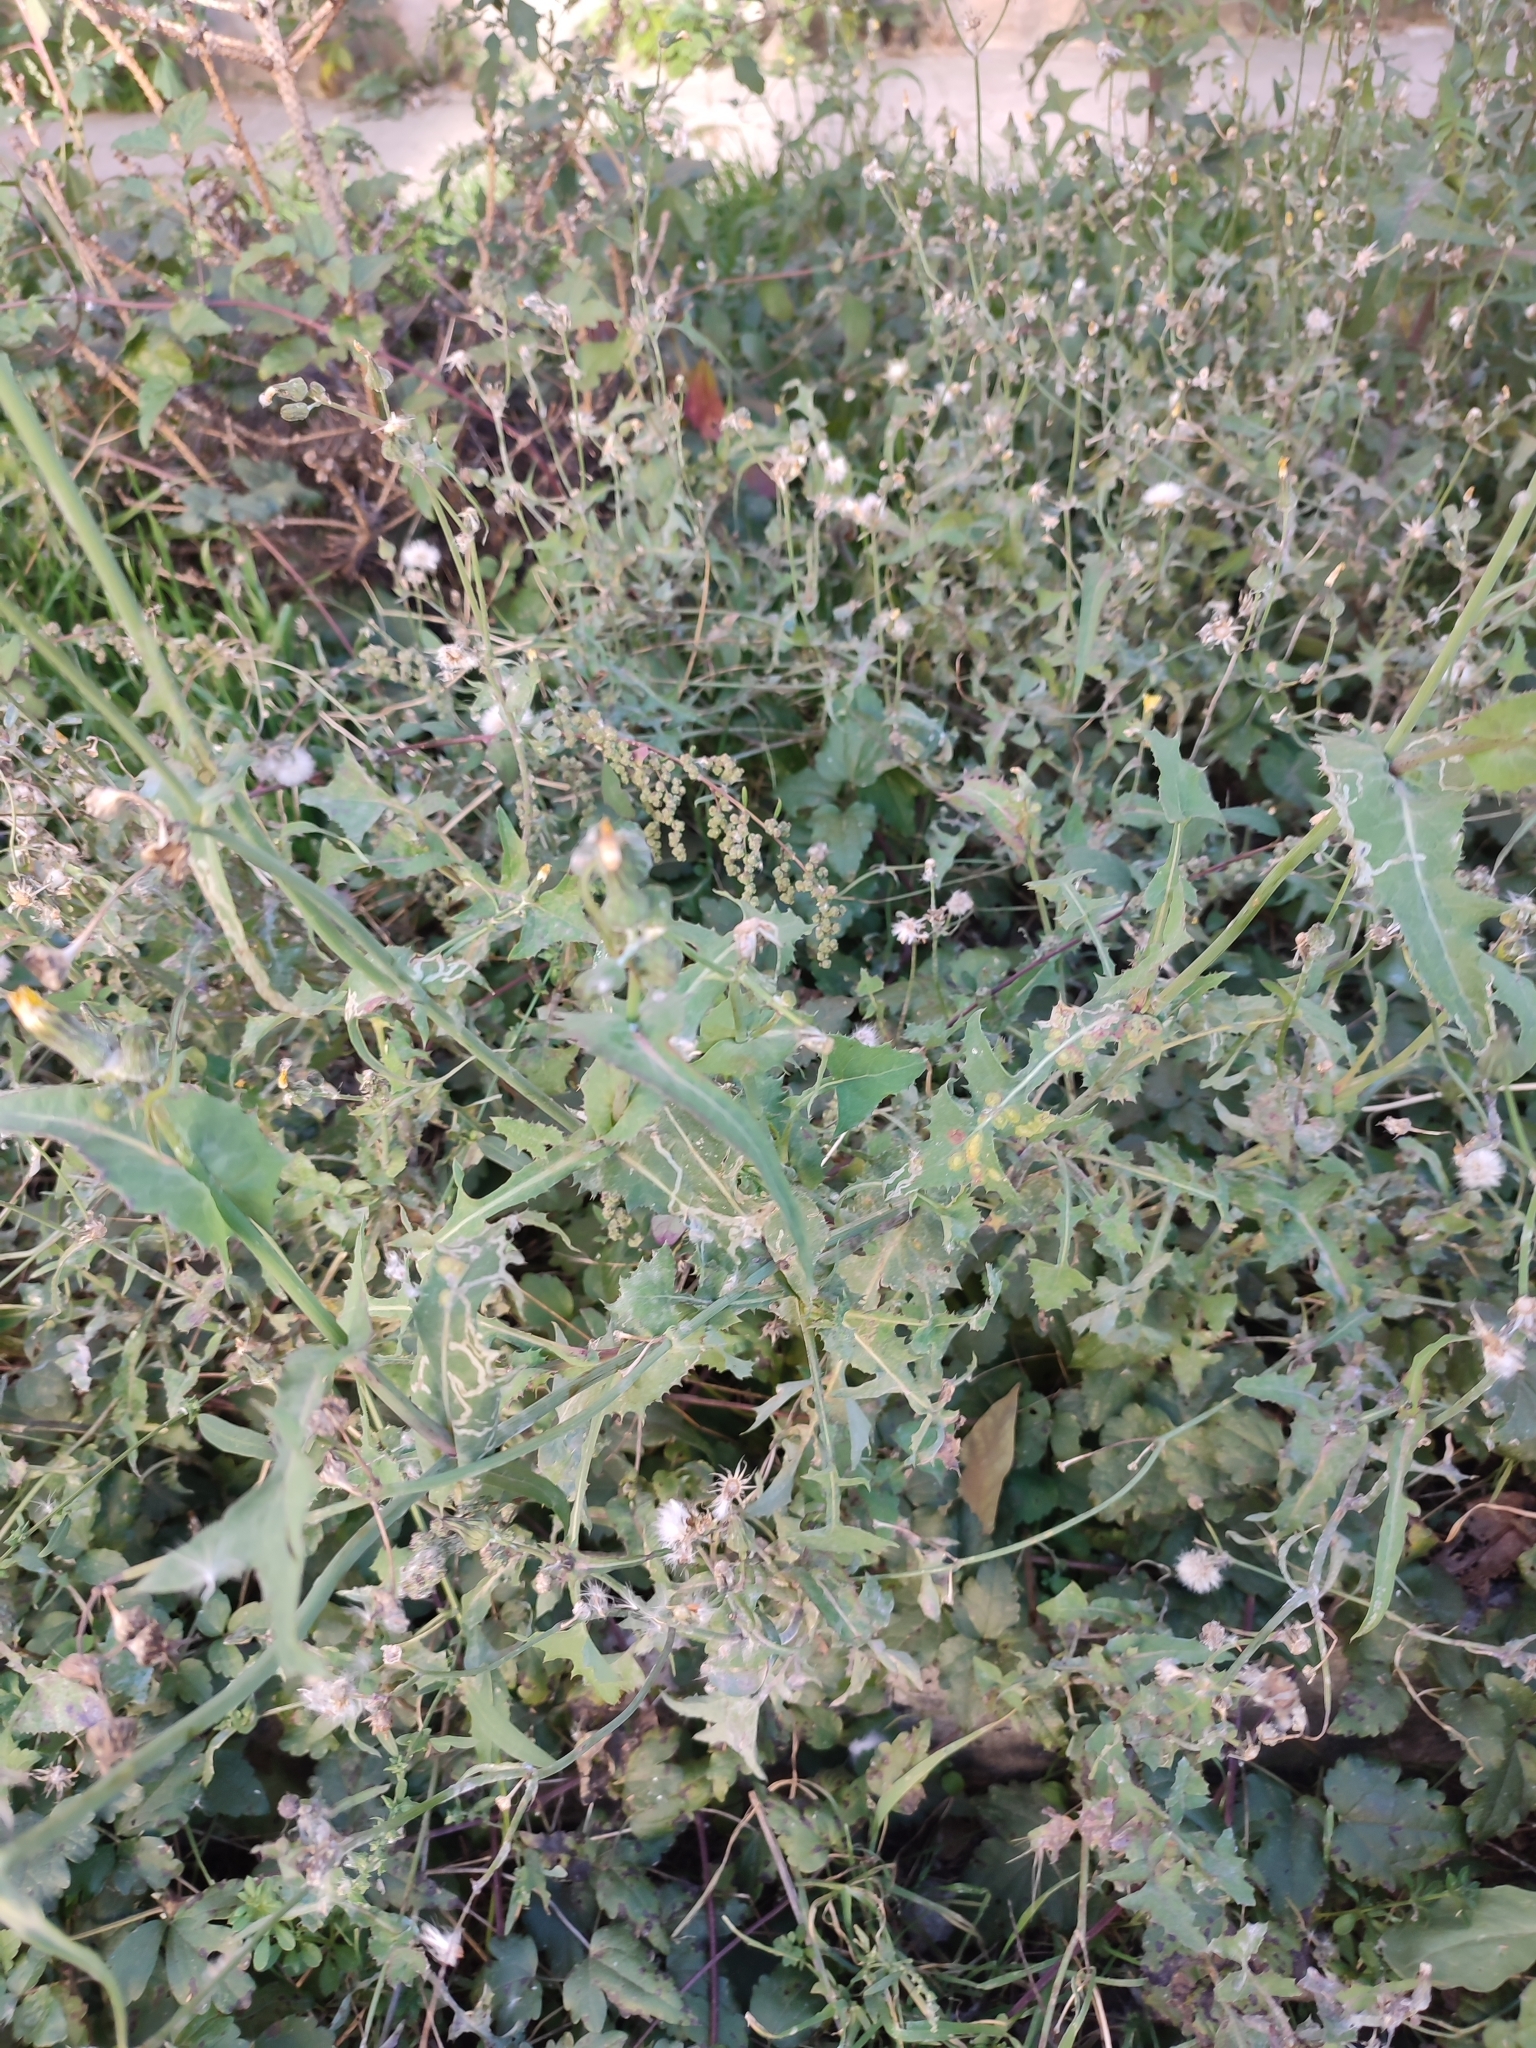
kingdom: Plantae
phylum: Tracheophyta
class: Magnoliopsida
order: Asterales
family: Asteraceae
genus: Sonchus
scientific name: Sonchus oleraceus
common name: Common sowthistle
